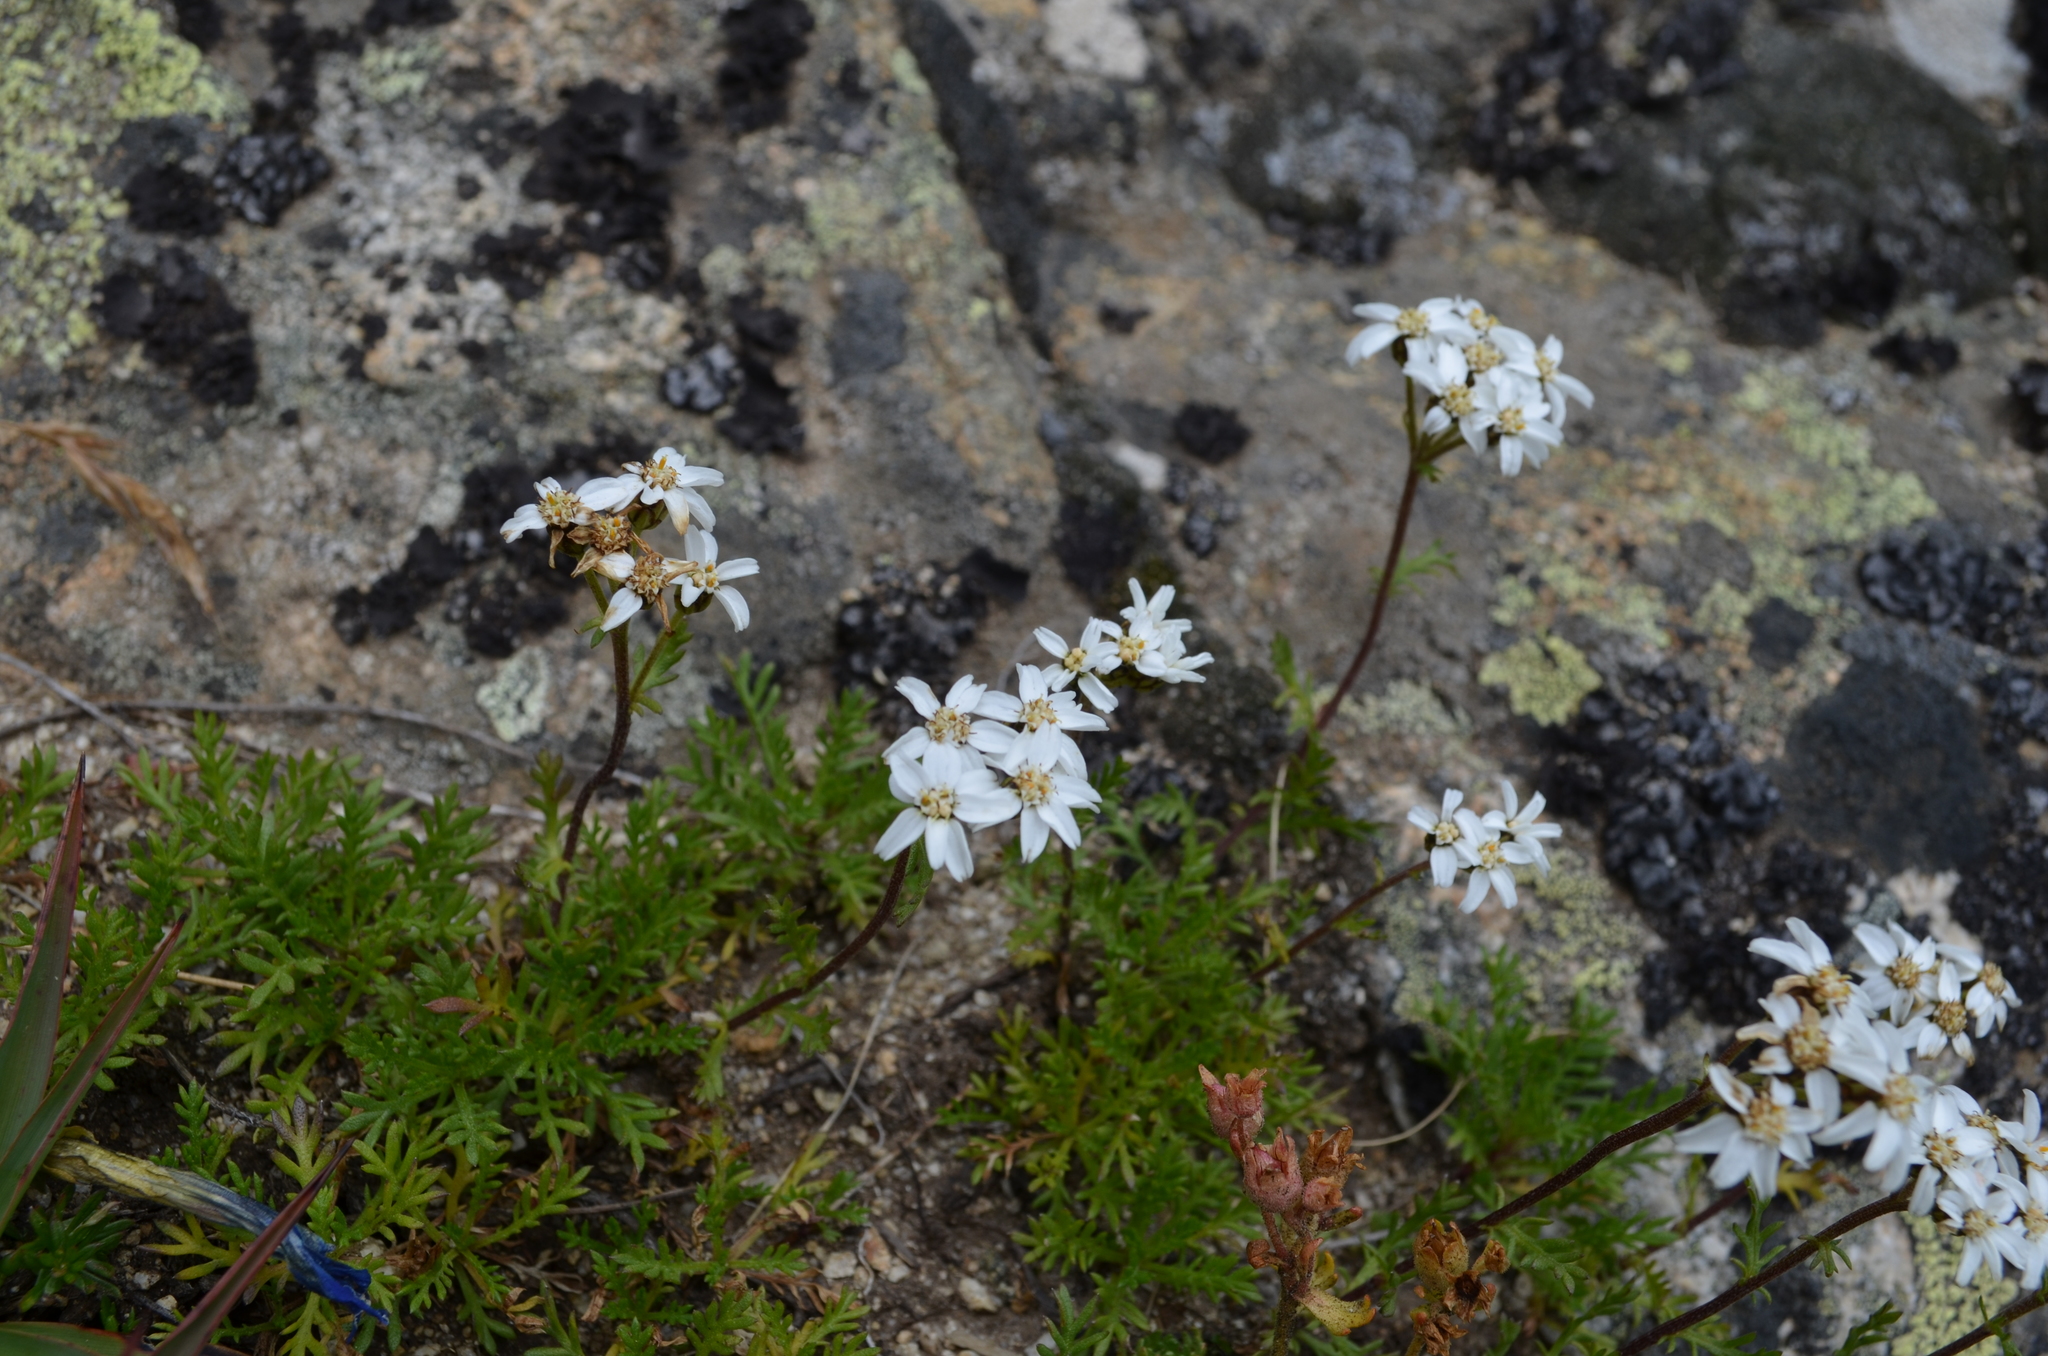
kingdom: Plantae
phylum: Tracheophyta
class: Magnoliopsida
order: Asterales
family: Asteraceae
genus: Achillea
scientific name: Achillea erba-rotta
